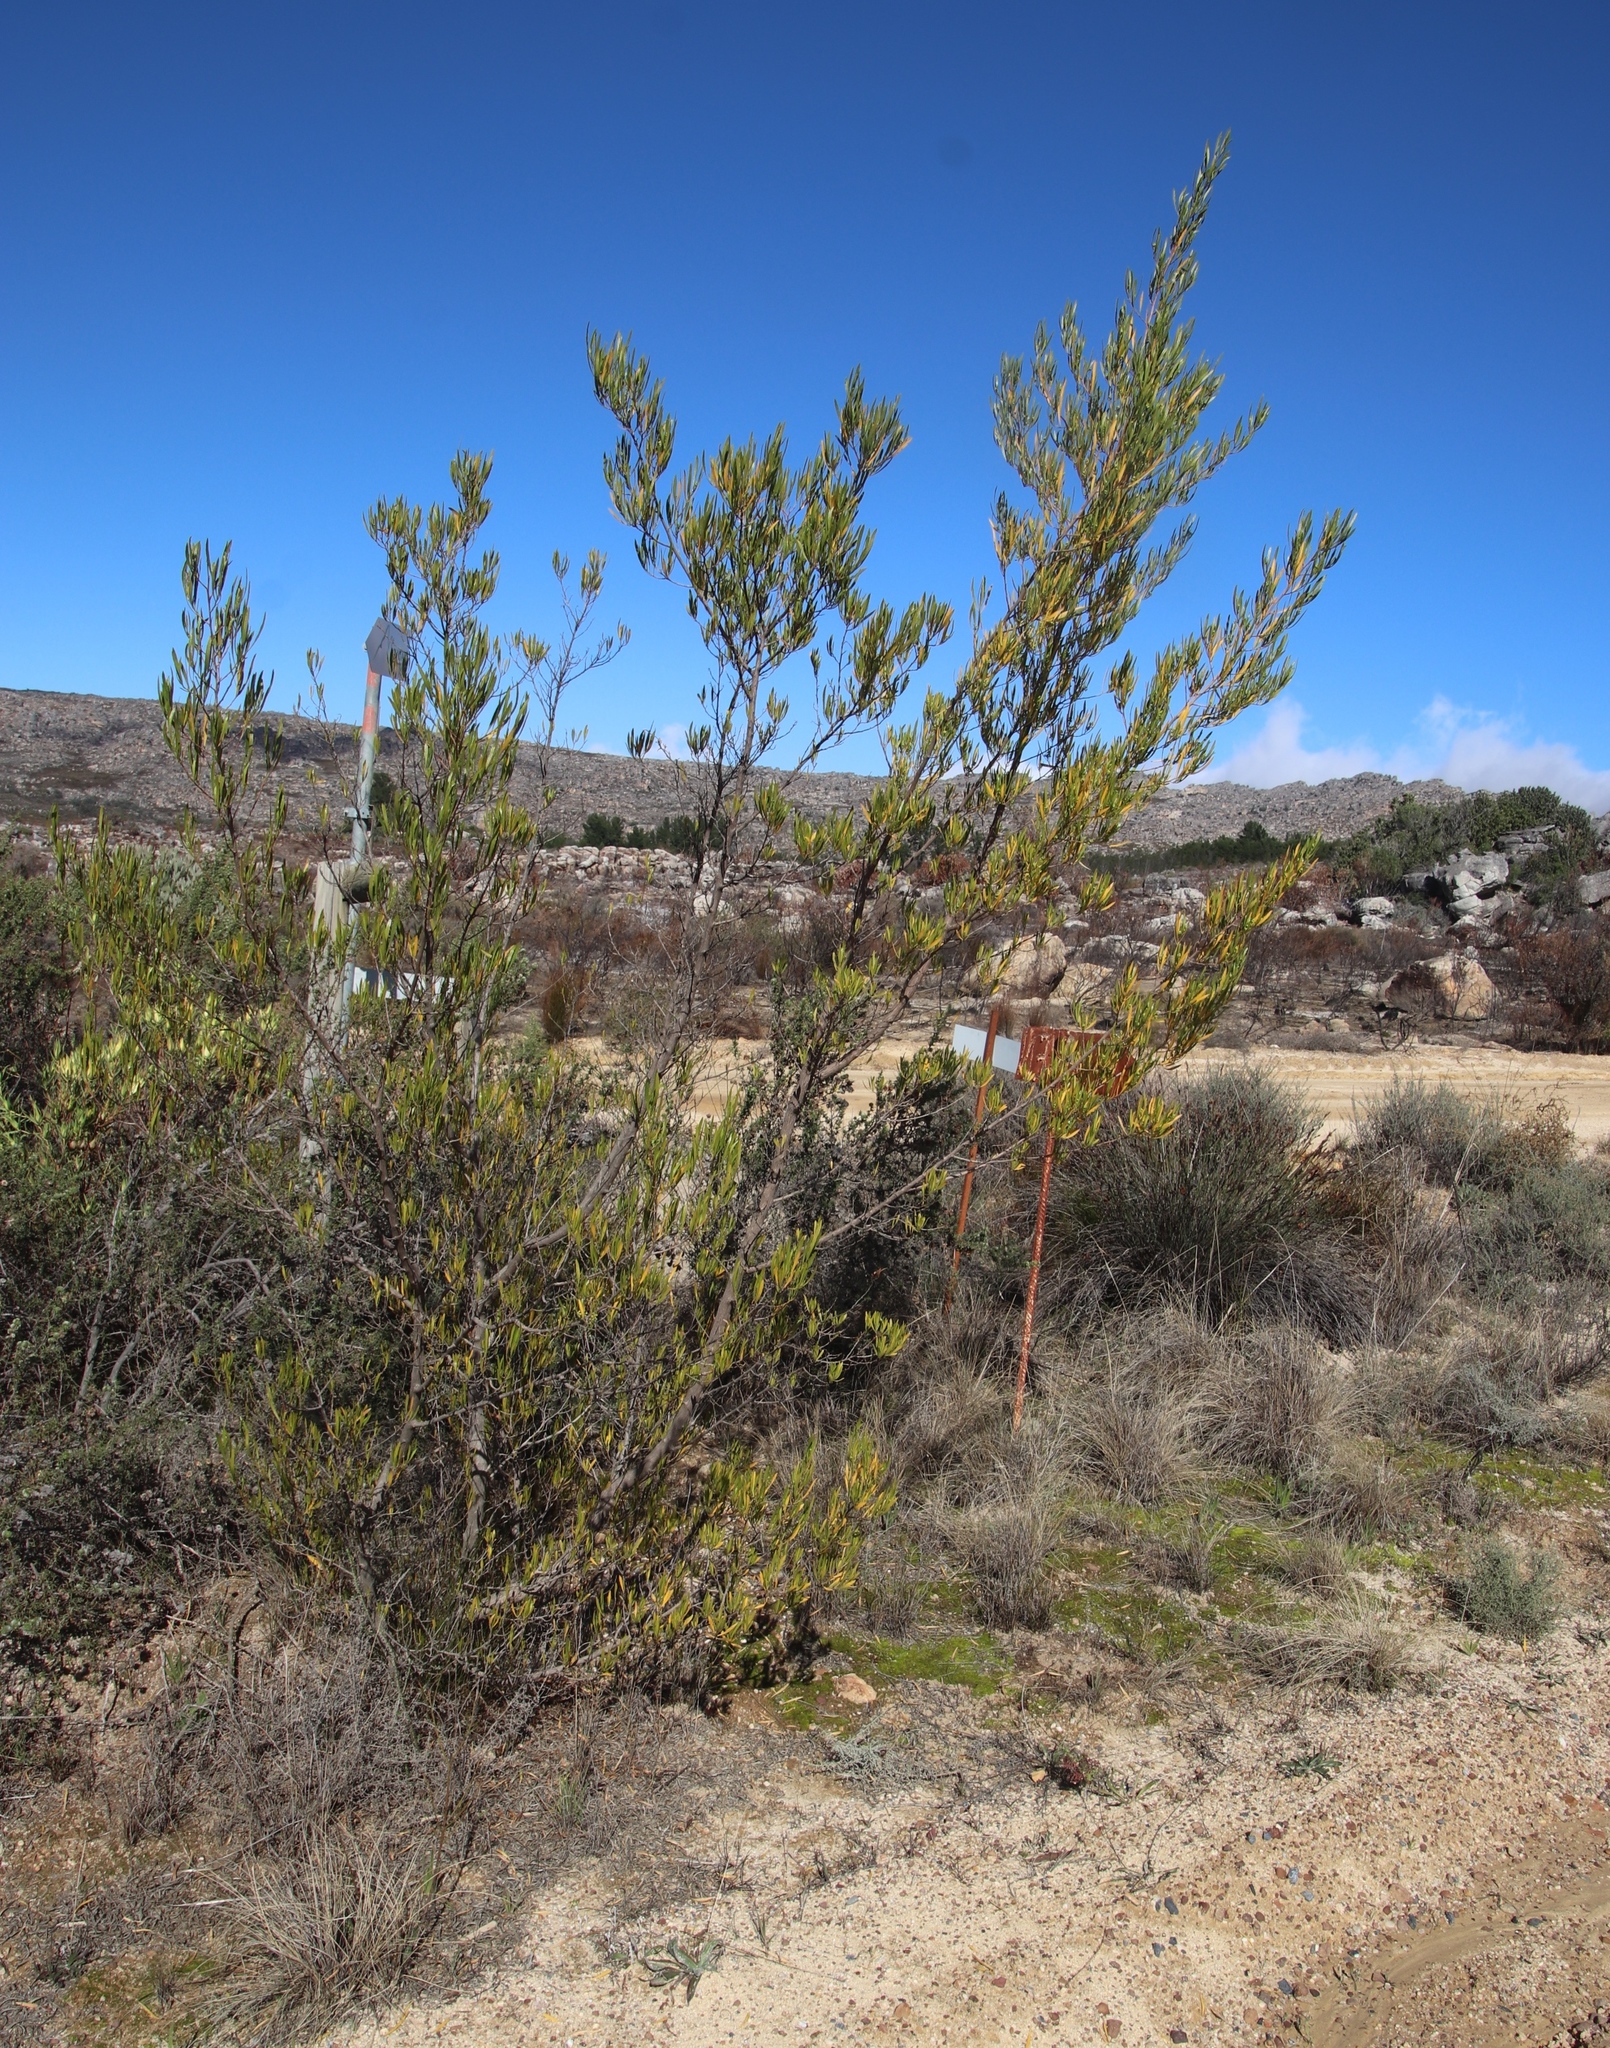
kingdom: Plantae
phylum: Tracheophyta
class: Magnoliopsida
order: Sapindales
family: Sapindaceae
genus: Dodonaea
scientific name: Dodonaea viscosa
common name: Hopbush
